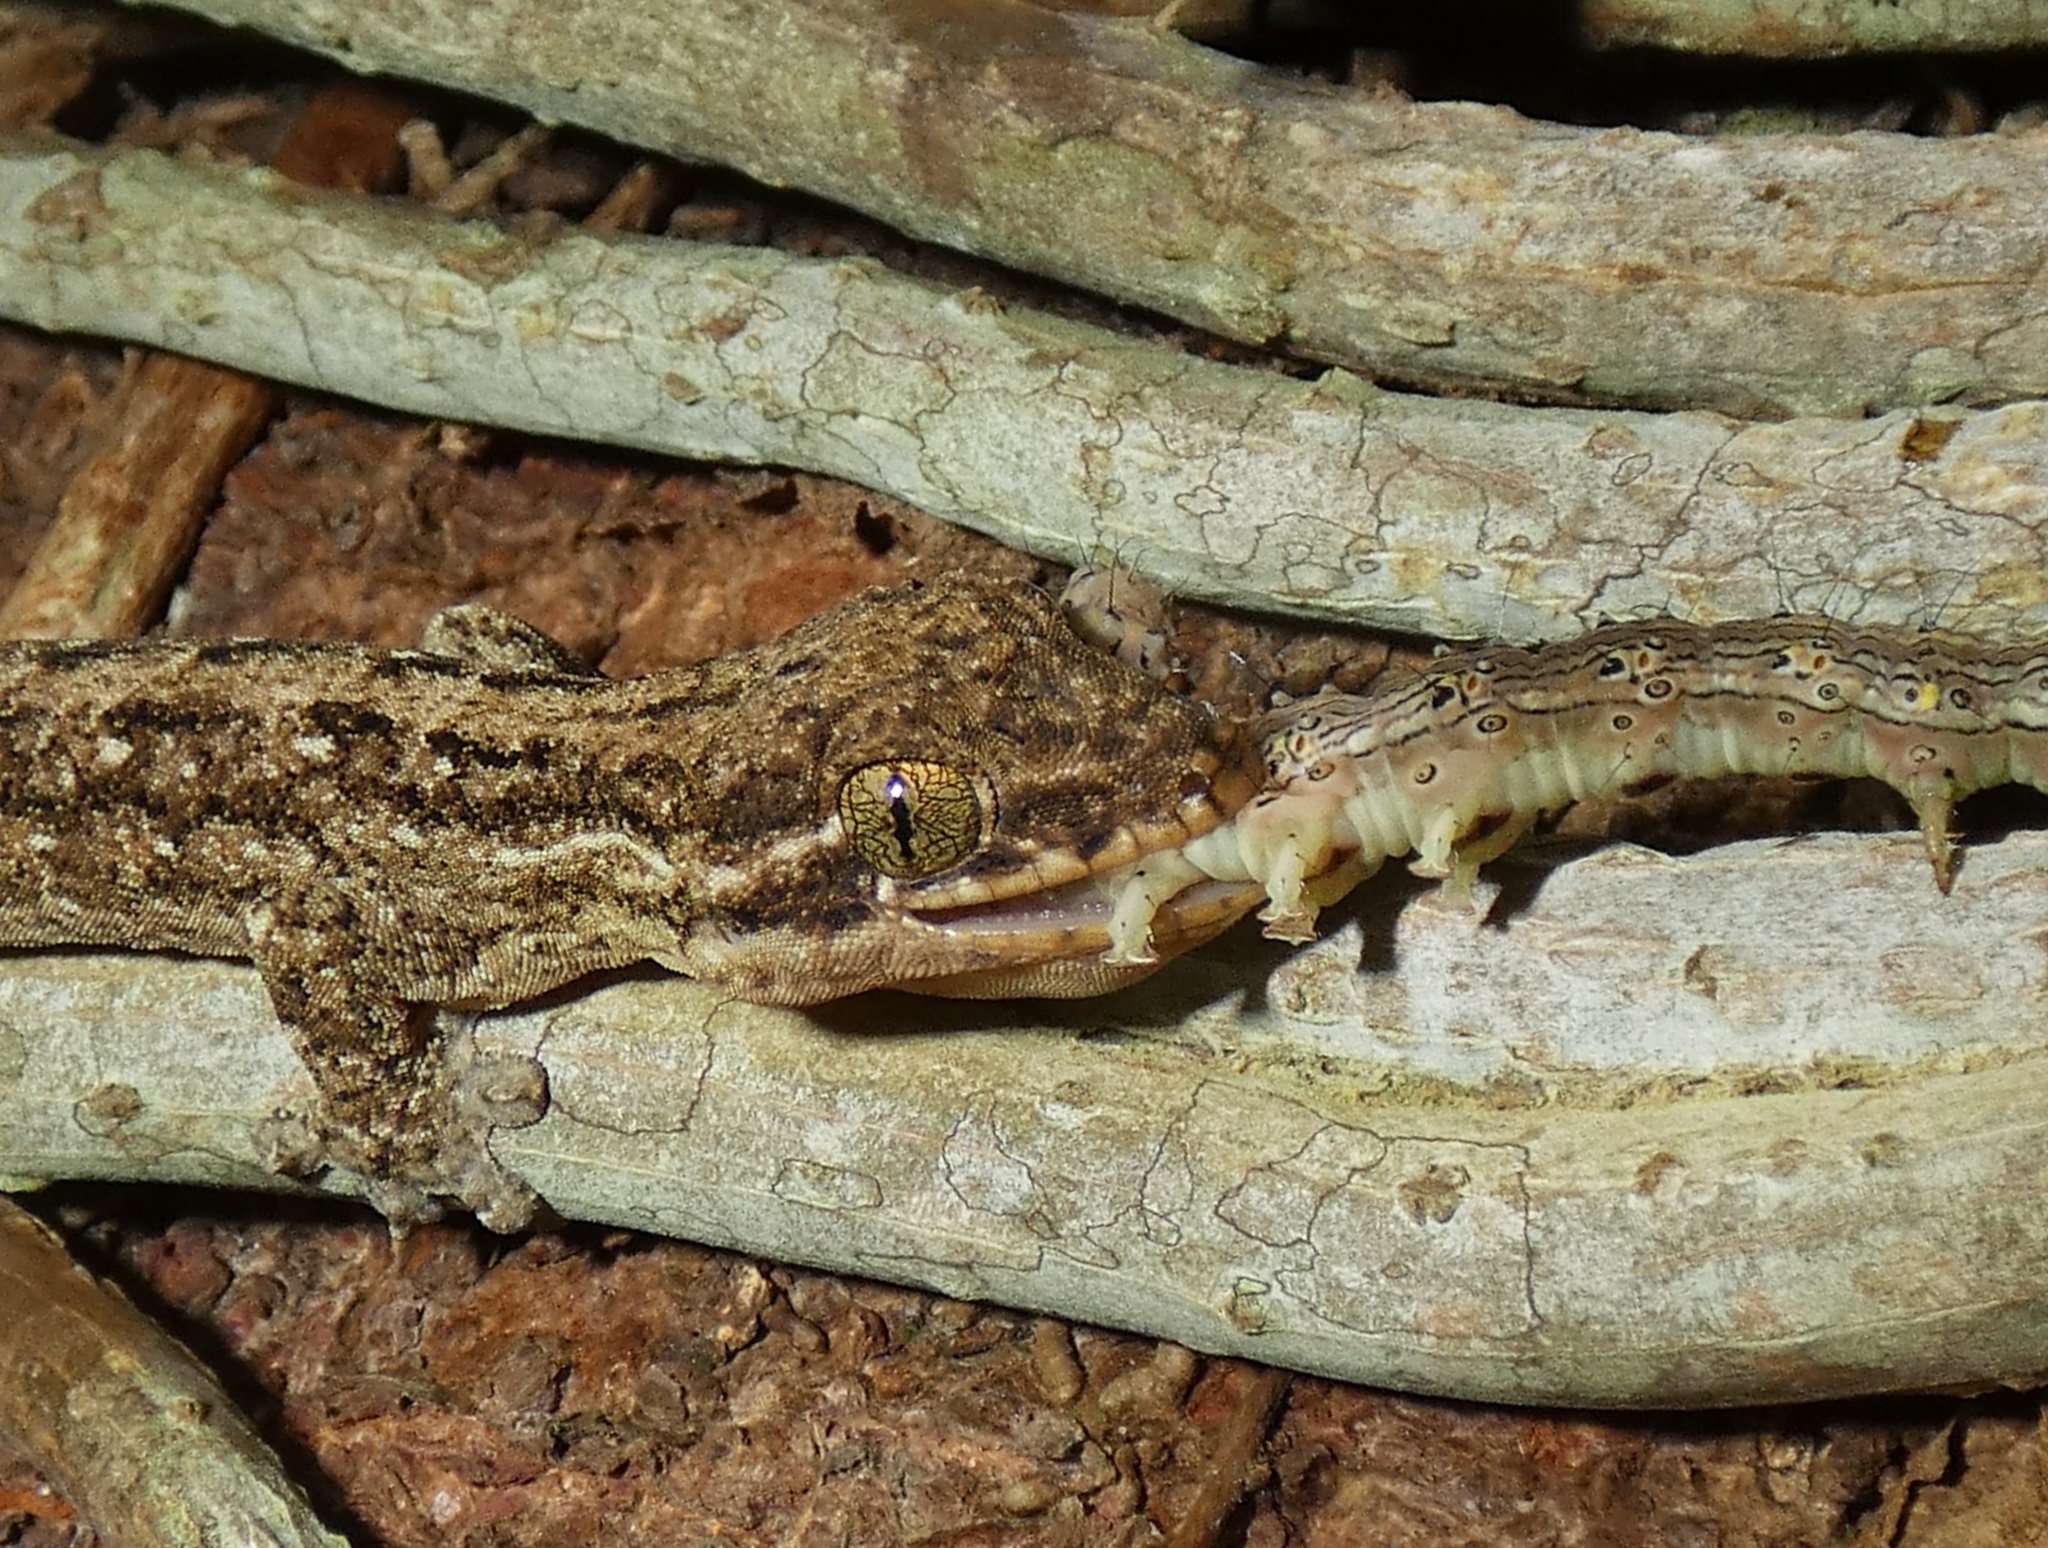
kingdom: Animalia
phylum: Chordata
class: Squamata
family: Phyllodactylidae
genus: Thecadactylus
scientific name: Thecadactylus rapicauda
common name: Turnip-tailed gecko
